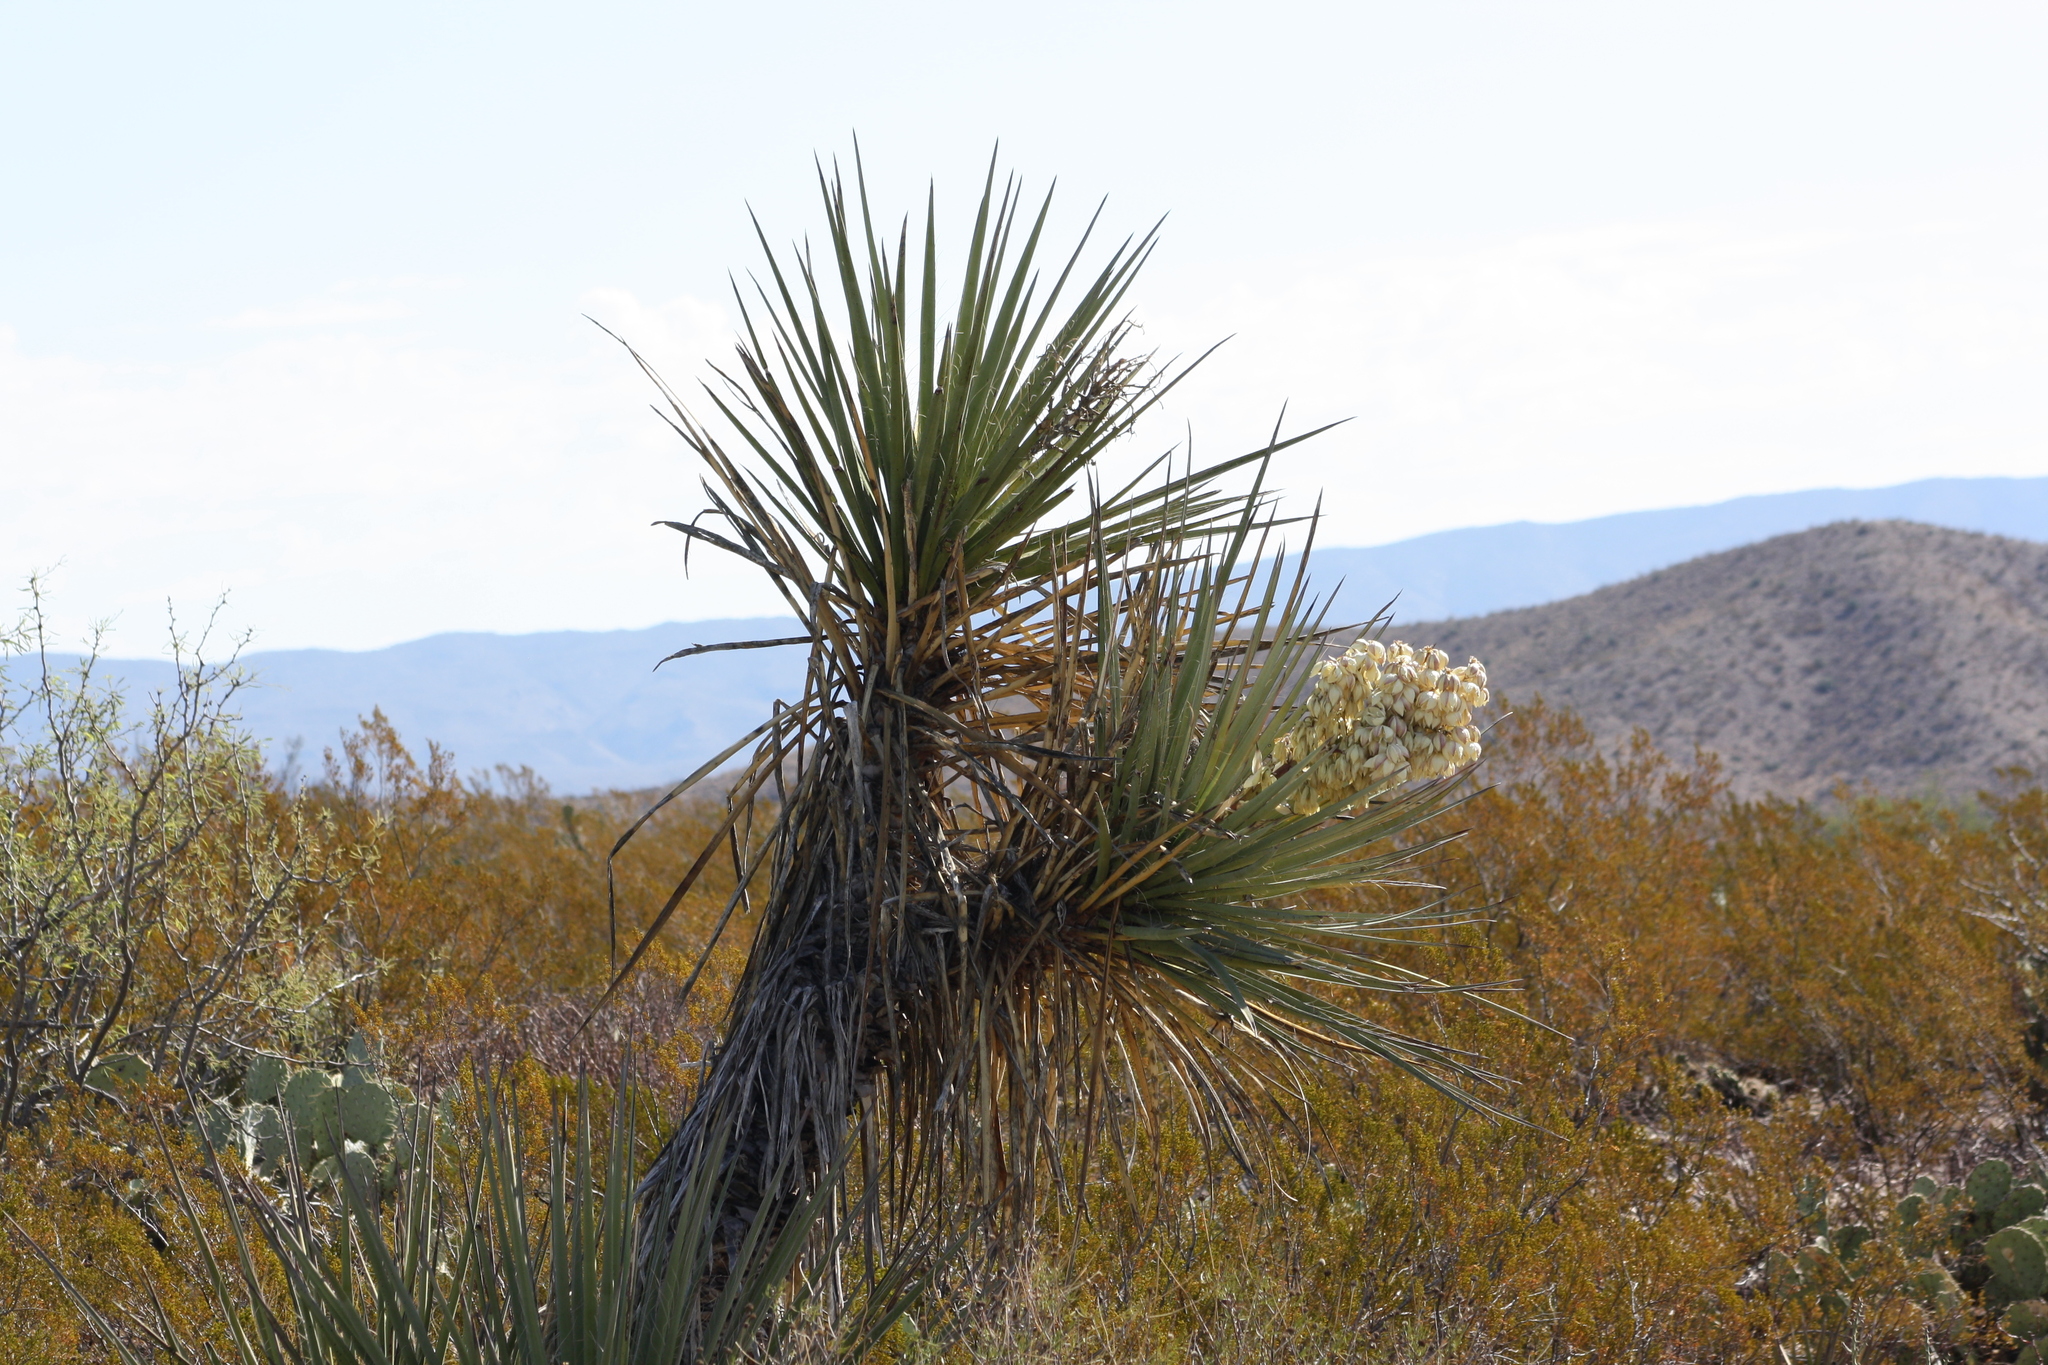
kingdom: Plantae
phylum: Tracheophyta
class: Liliopsida
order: Asparagales
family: Asparagaceae
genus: Yucca
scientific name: Yucca treculiana
